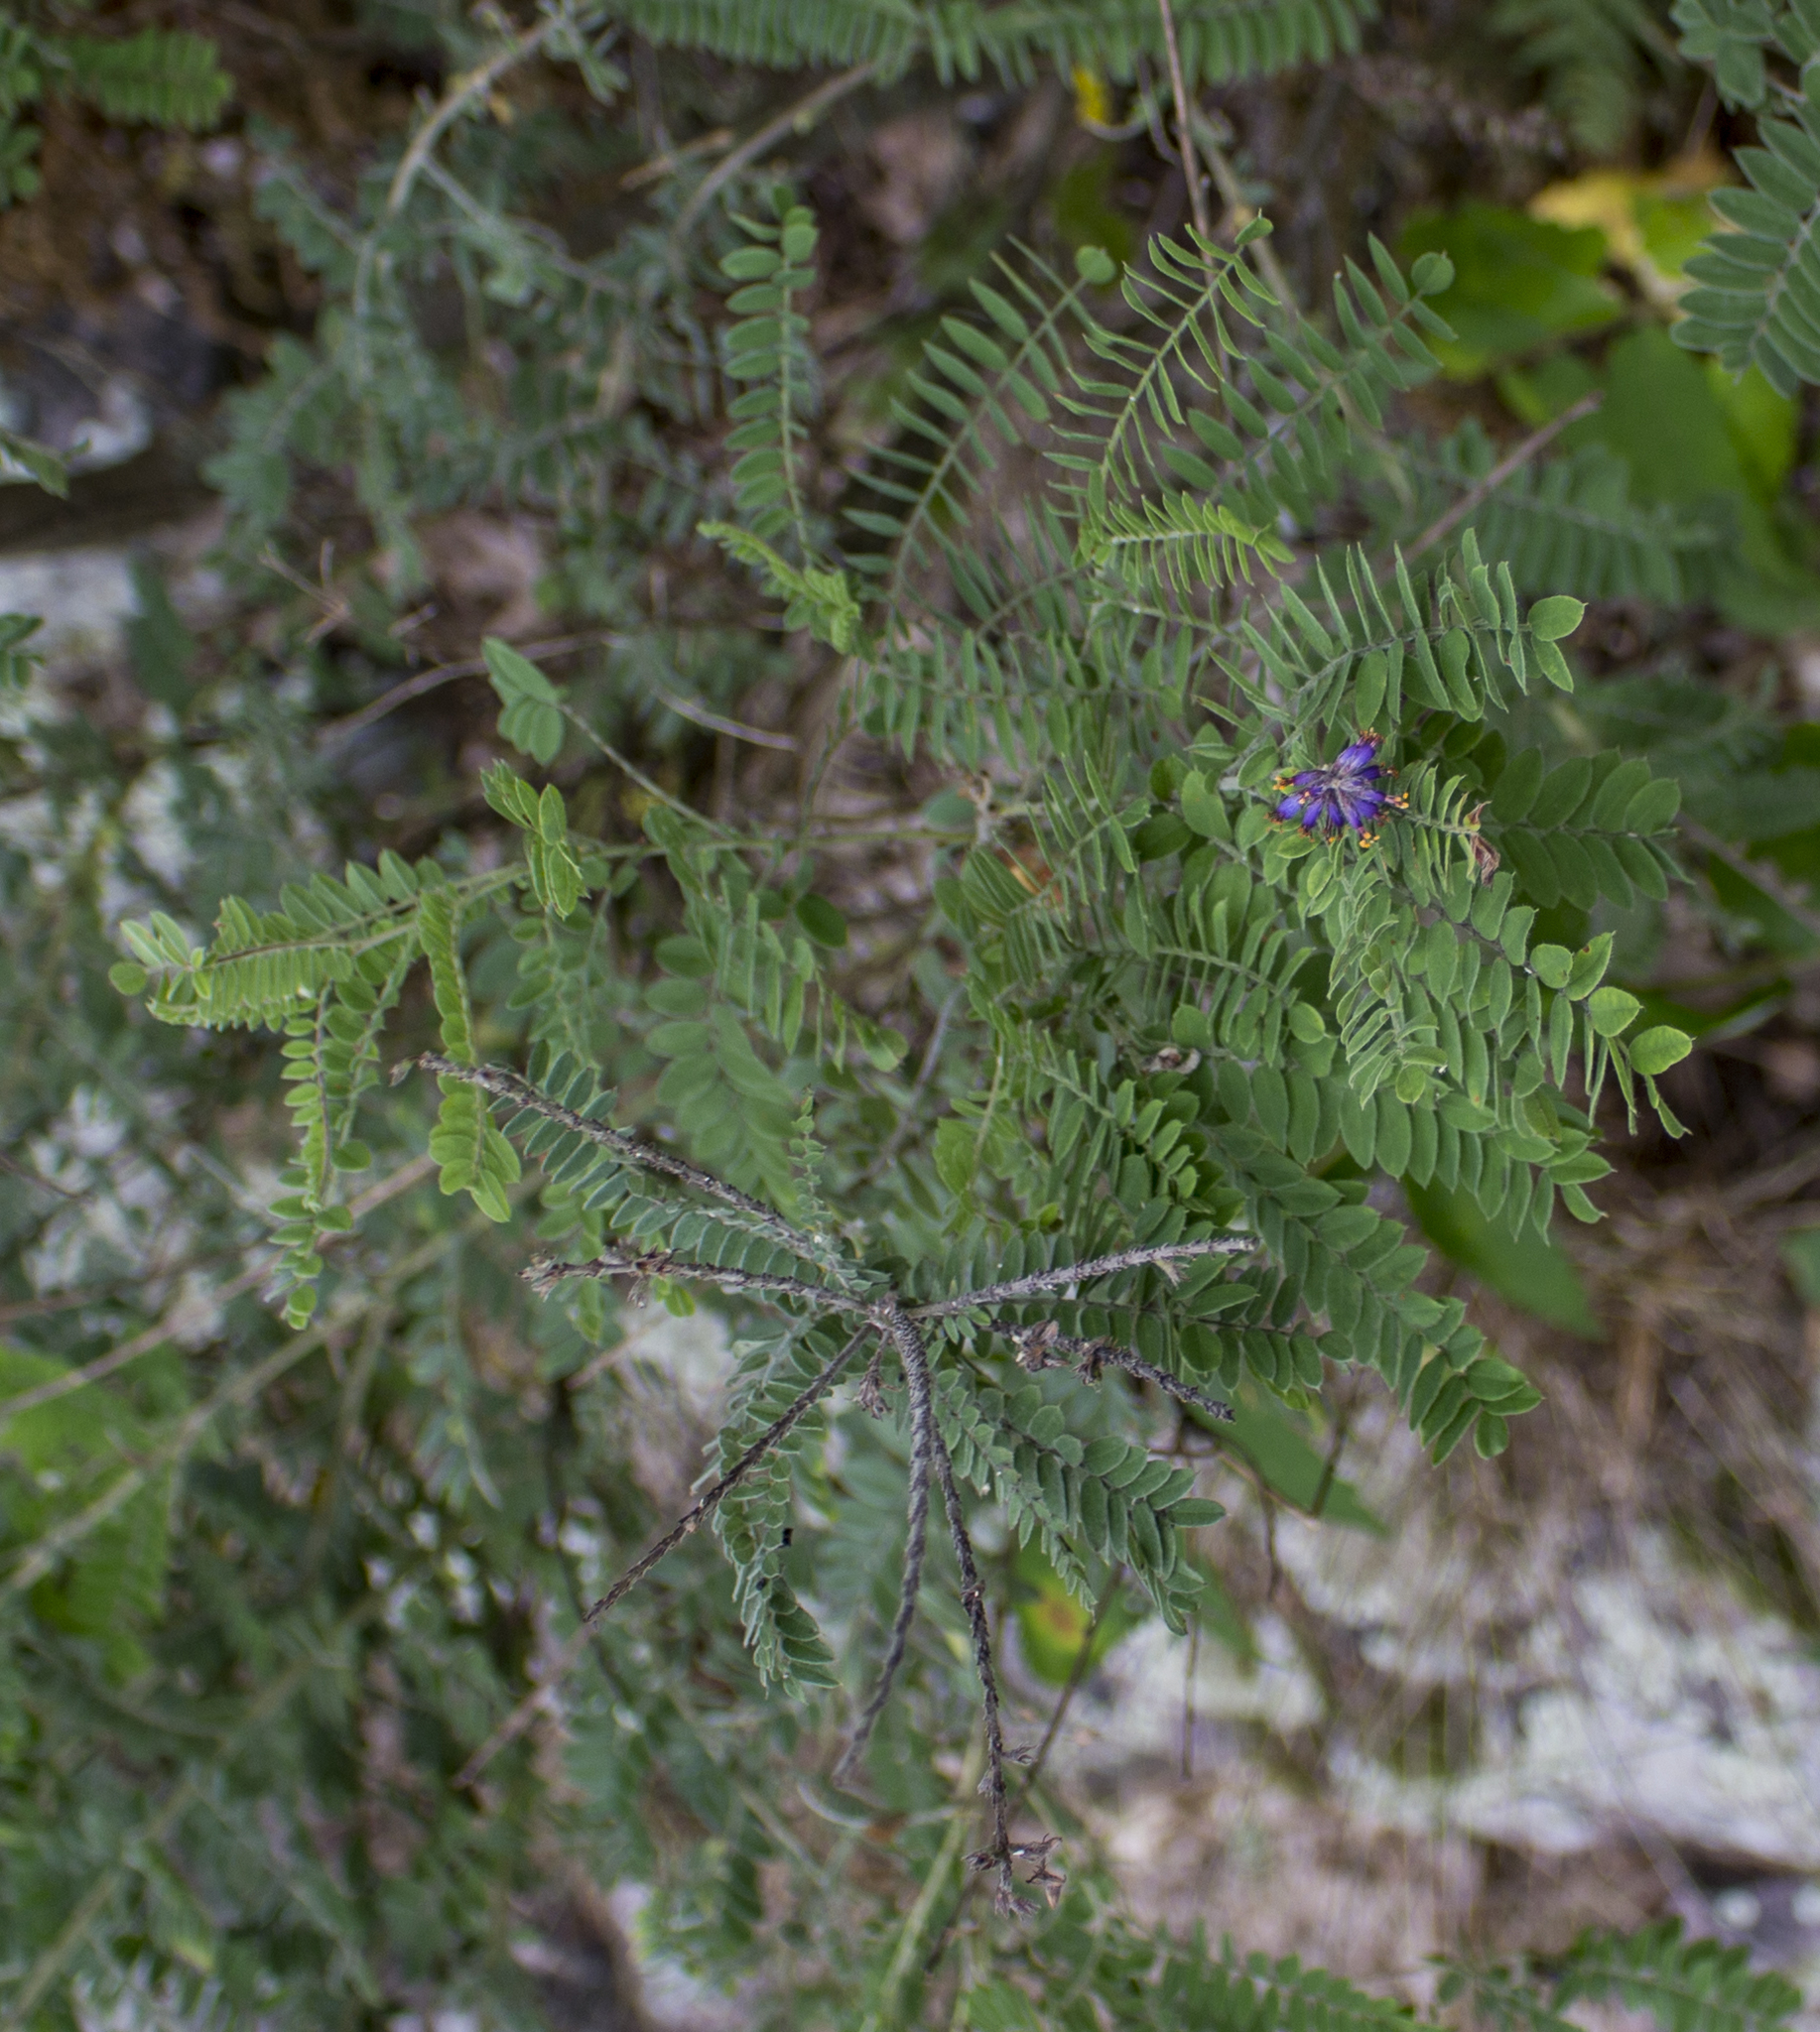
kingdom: Plantae
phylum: Tracheophyta
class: Magnoliopsida
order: Fabales
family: Fabaceae
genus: Amorpha
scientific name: Amorpha canescens
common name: Leadplant
